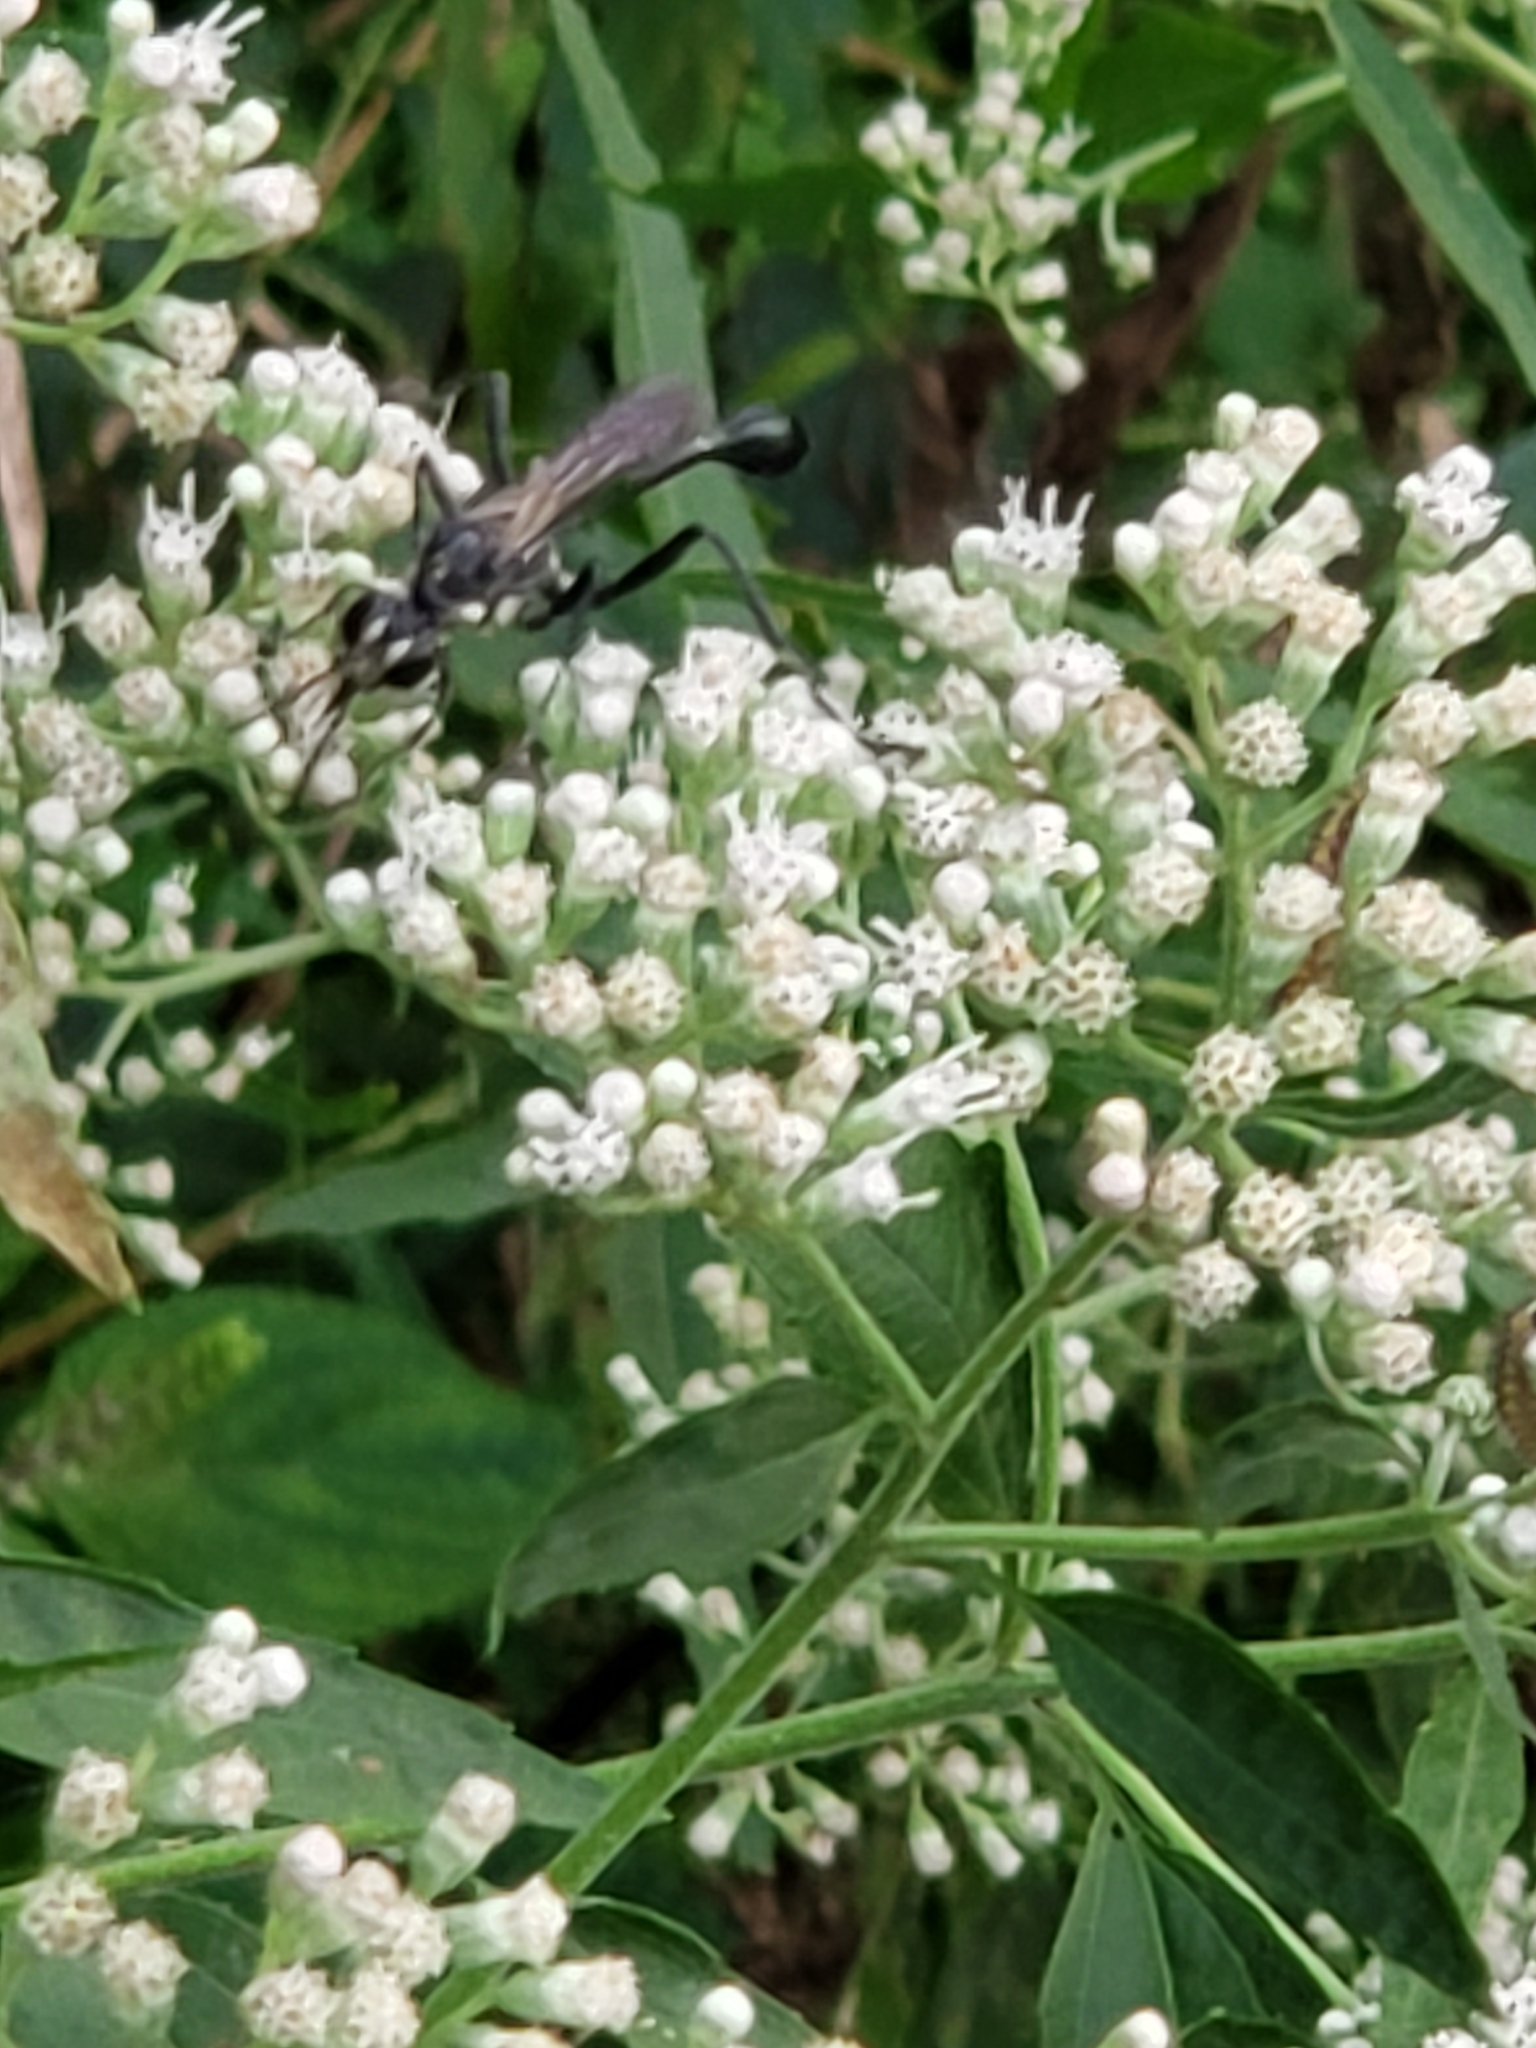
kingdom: Animalia
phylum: Arthropoda
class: Insecta
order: Hymenoptera
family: Sphecidae
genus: Eremnophila
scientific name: Eremnophila aureonotata
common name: Gold-marked thread-waisted wasp
